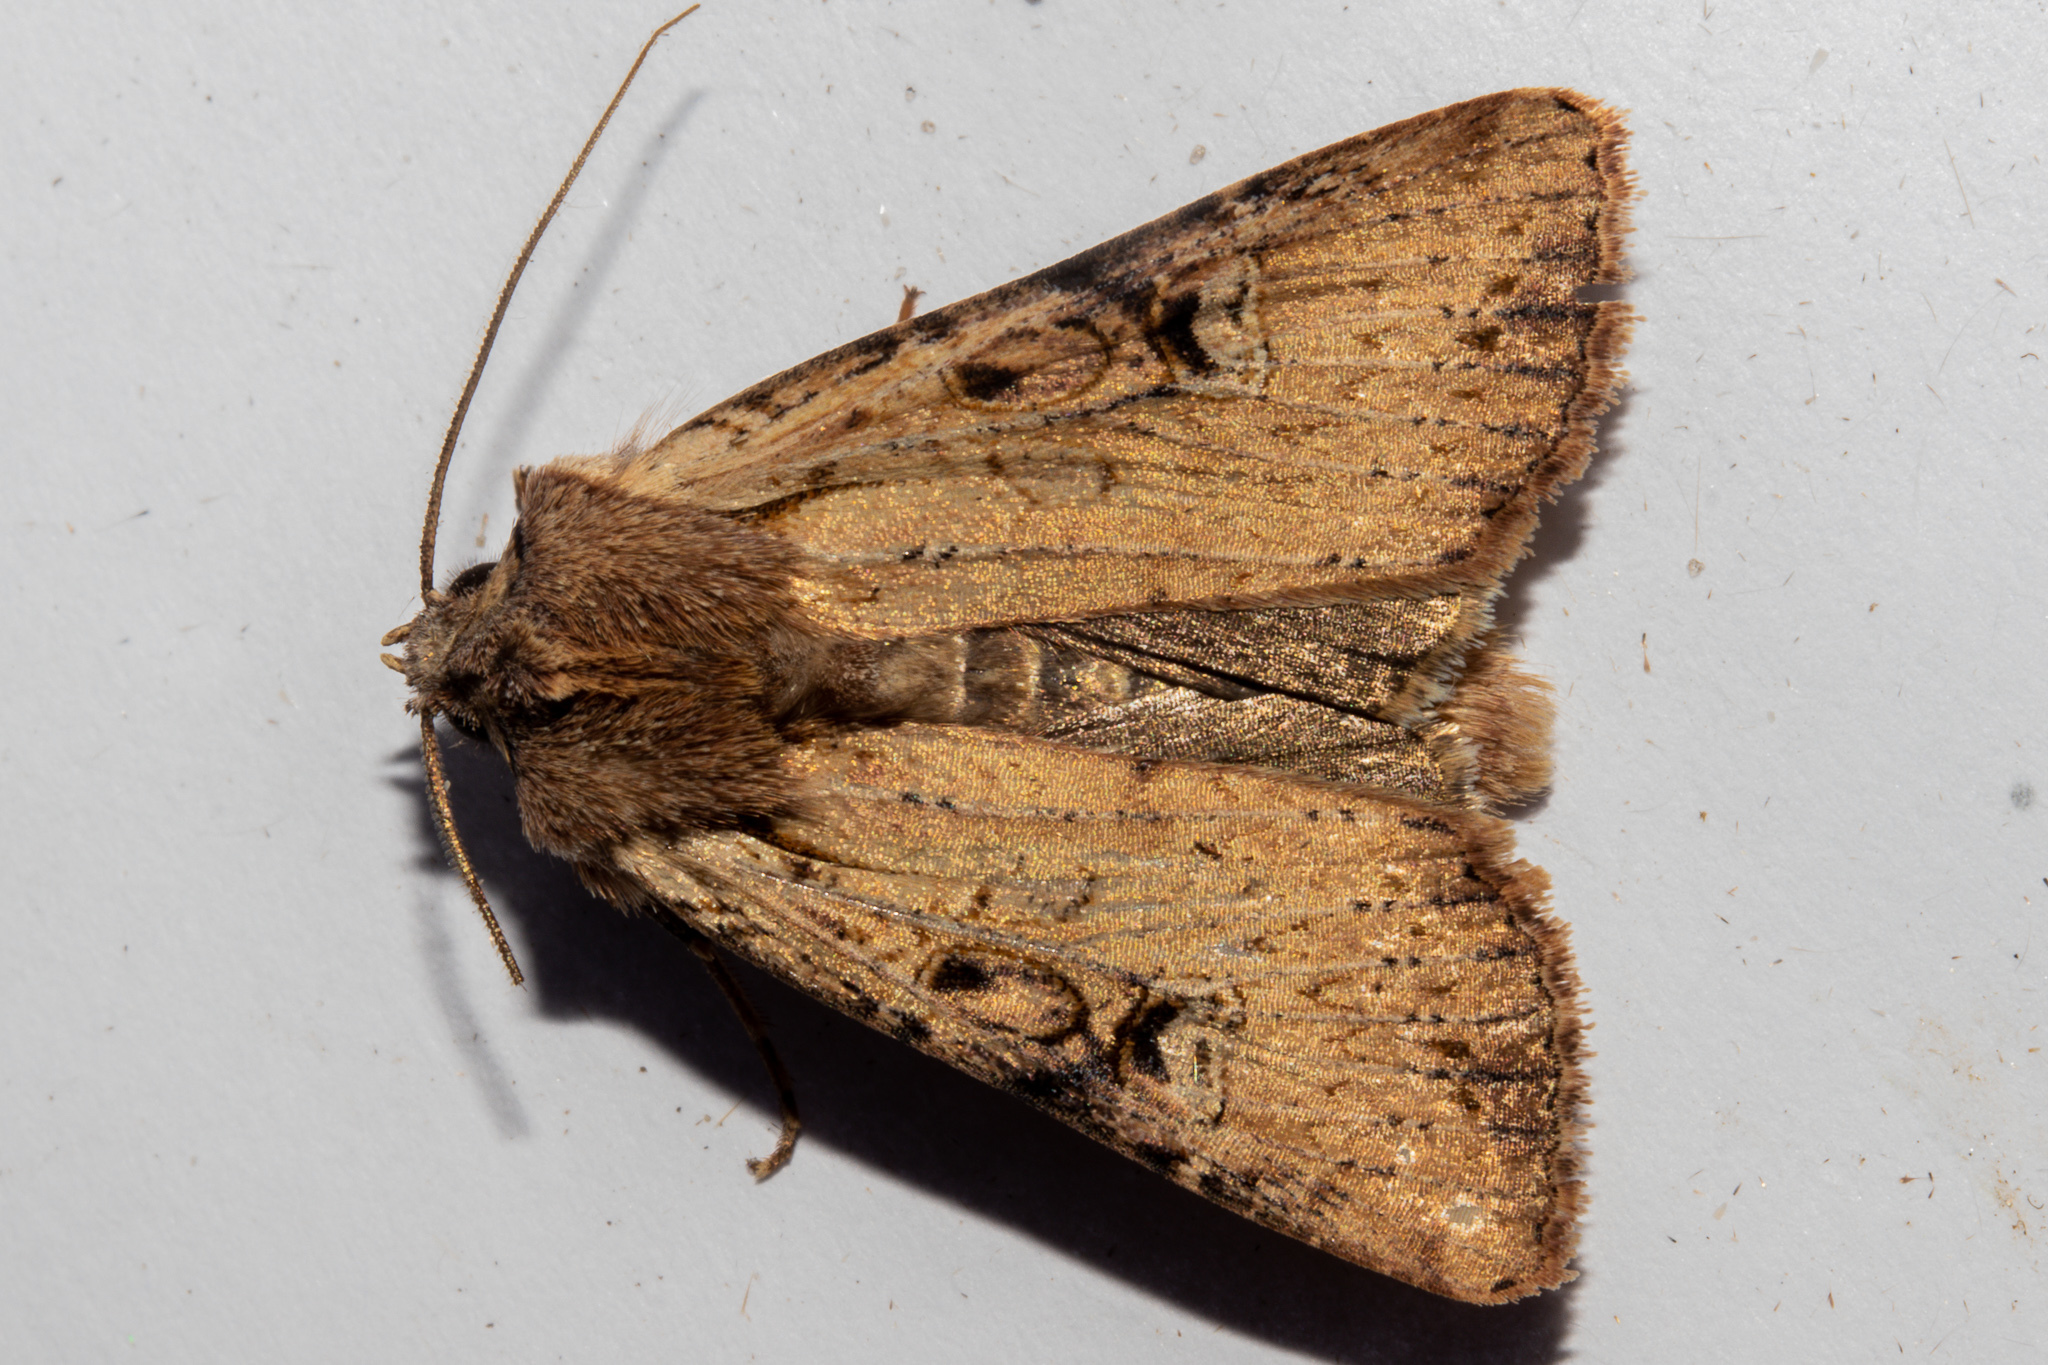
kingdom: Animalia
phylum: Arthropoda
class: Insecta
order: Lepidoptera
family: Noctuidae
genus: Ichneutica
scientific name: Ichneutica omoplaca
